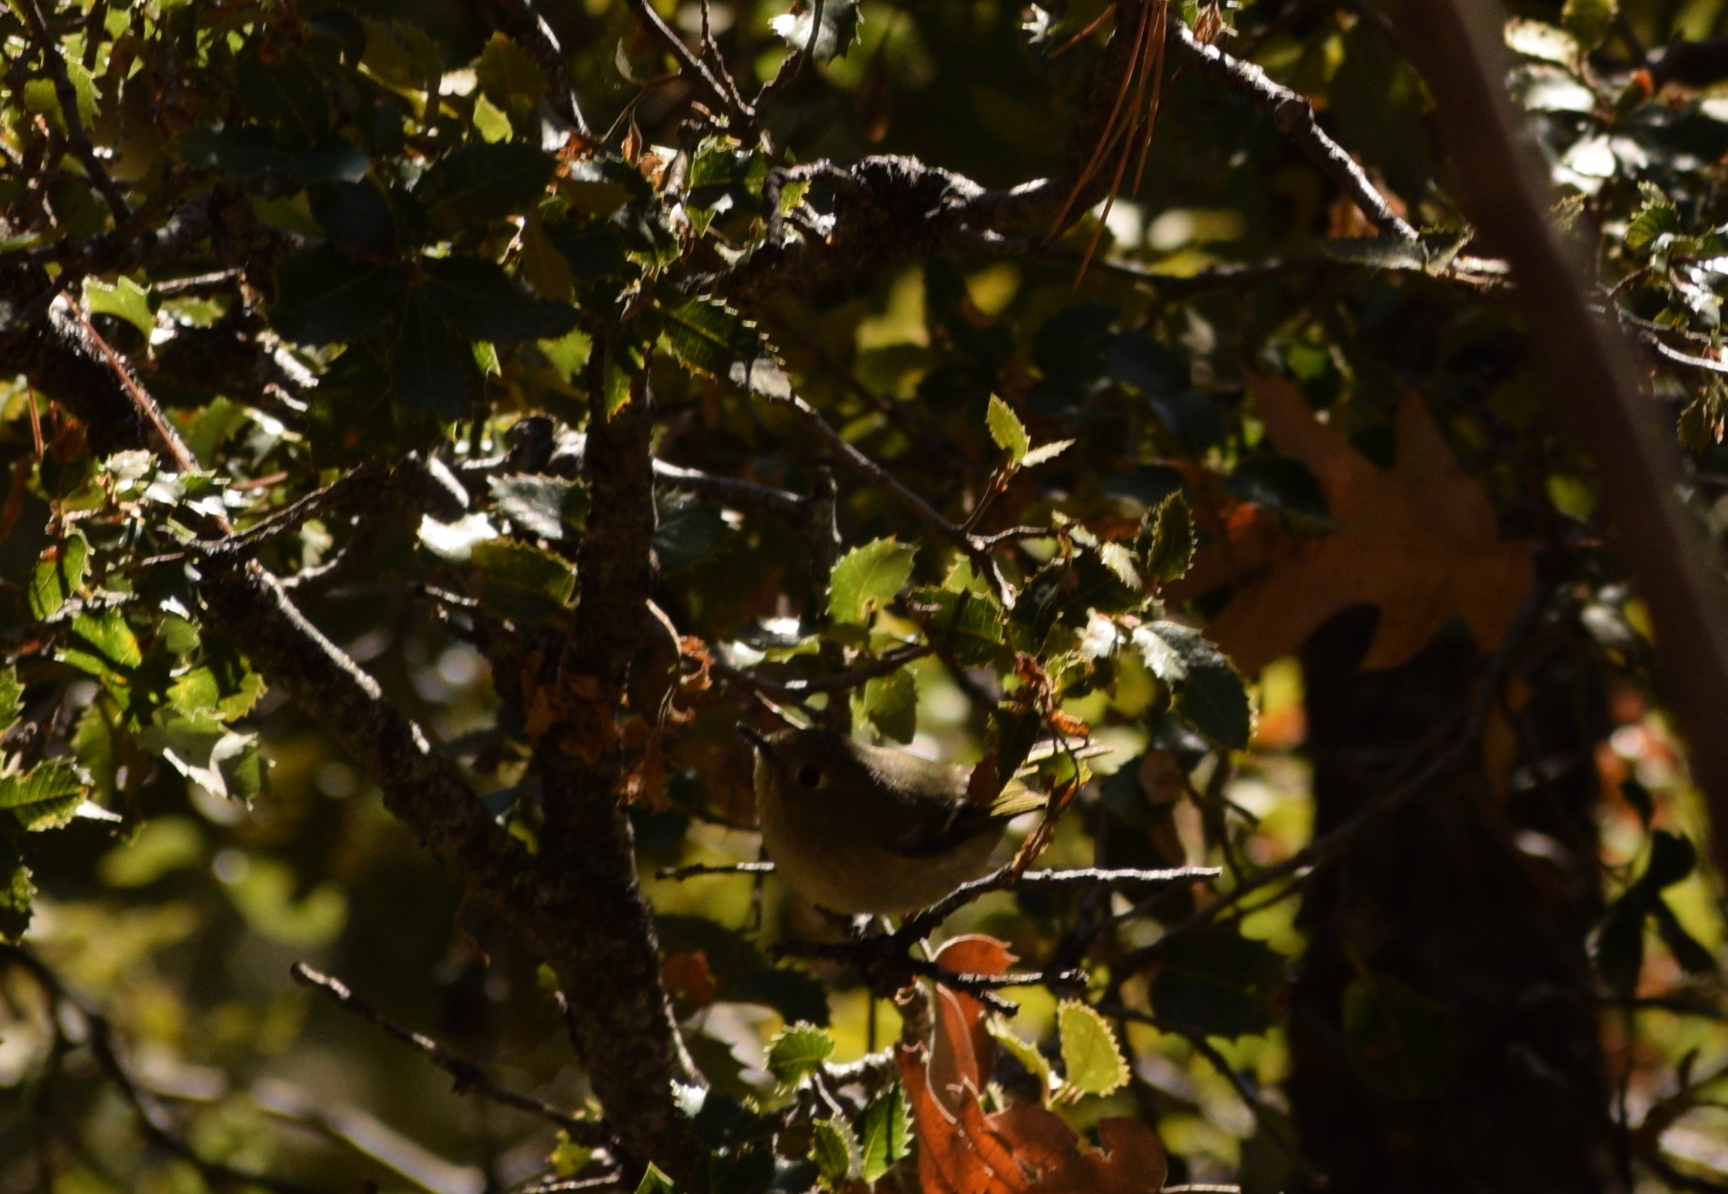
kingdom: Animalia
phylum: Chordata
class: Aves
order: Passeriformes
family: Regulidae
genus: Regulus
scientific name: Regulus calendula
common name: Ruby-crowned kinglet
